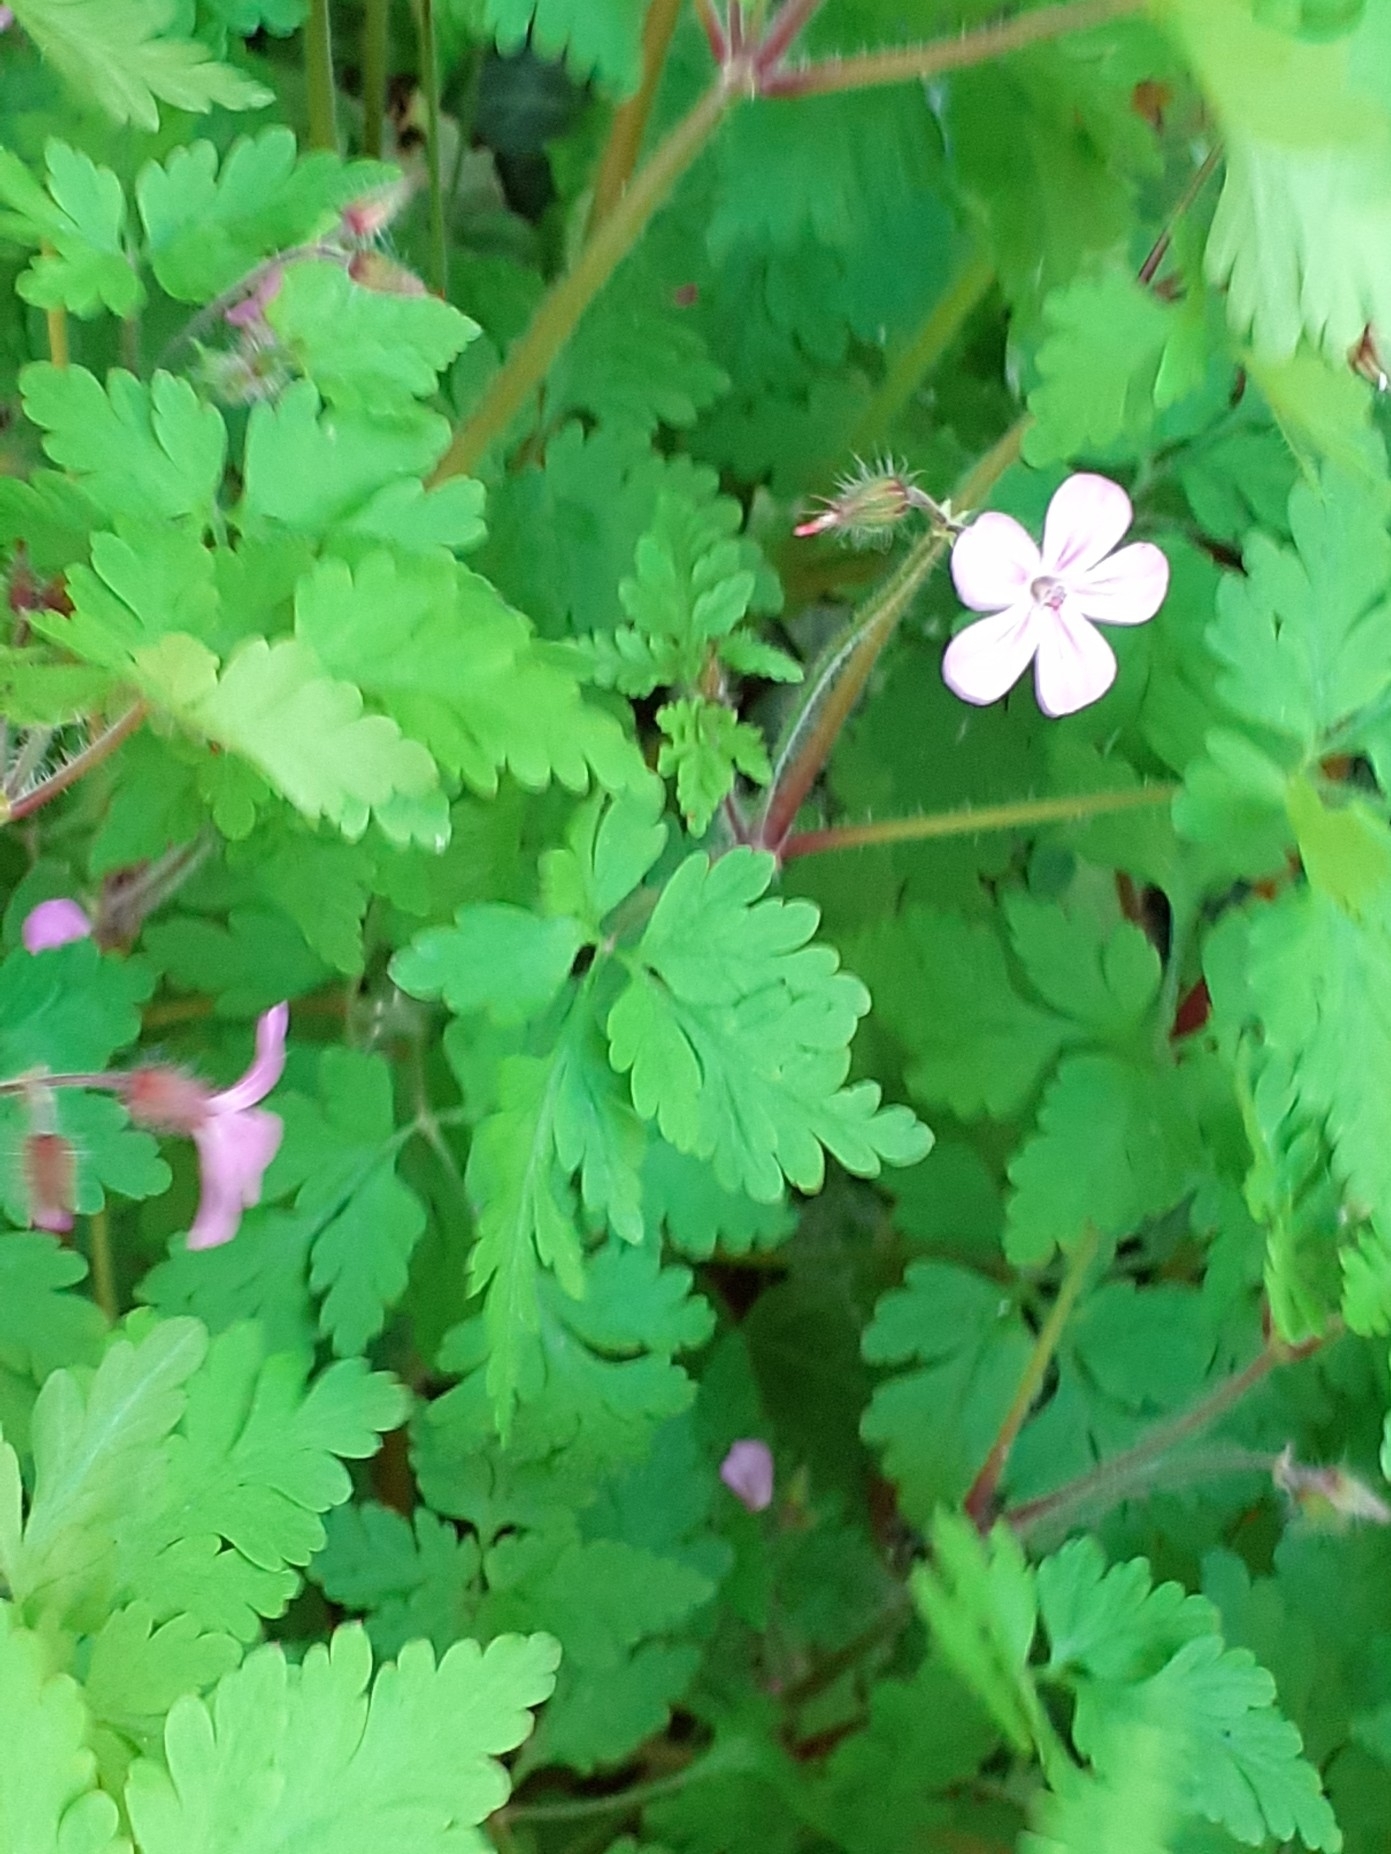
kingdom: Plantae
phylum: Tracheophyta
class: Magnoliopsida
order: Geraniales
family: Geraniaceae
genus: Geranium
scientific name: Geranium robertianum
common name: Herb-robert
